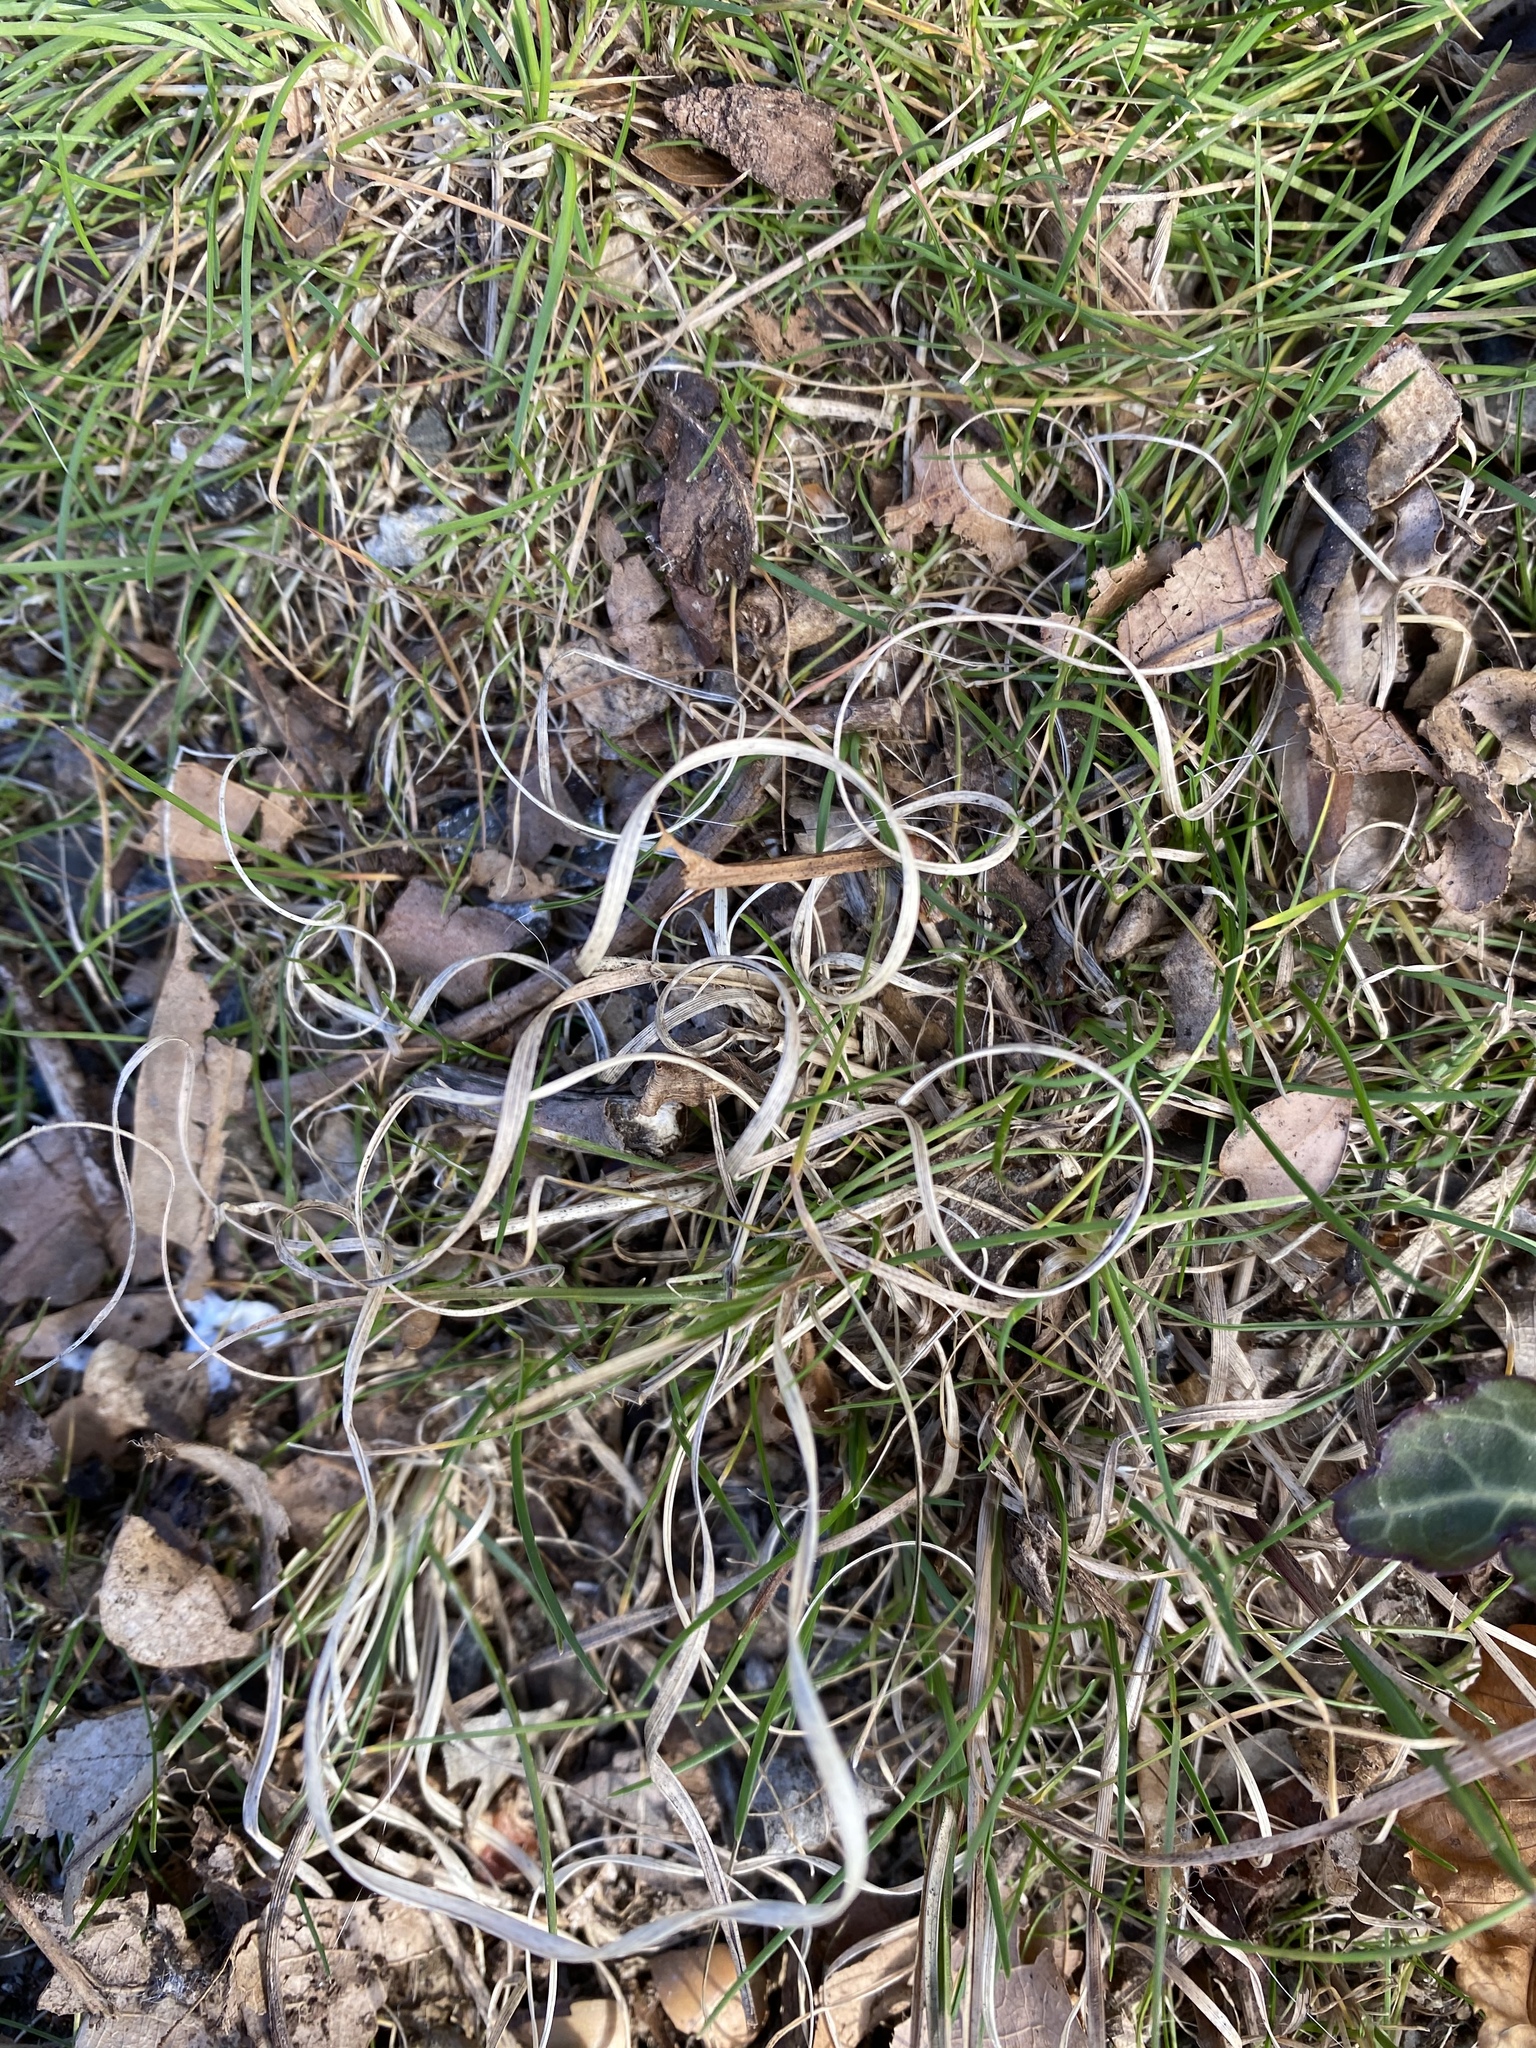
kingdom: Plantae
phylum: Tracheophyta
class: Liliopsida
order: Poales
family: Poaceae
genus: Danthonia
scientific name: Danthonia spicata
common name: Common wild oatgrass
